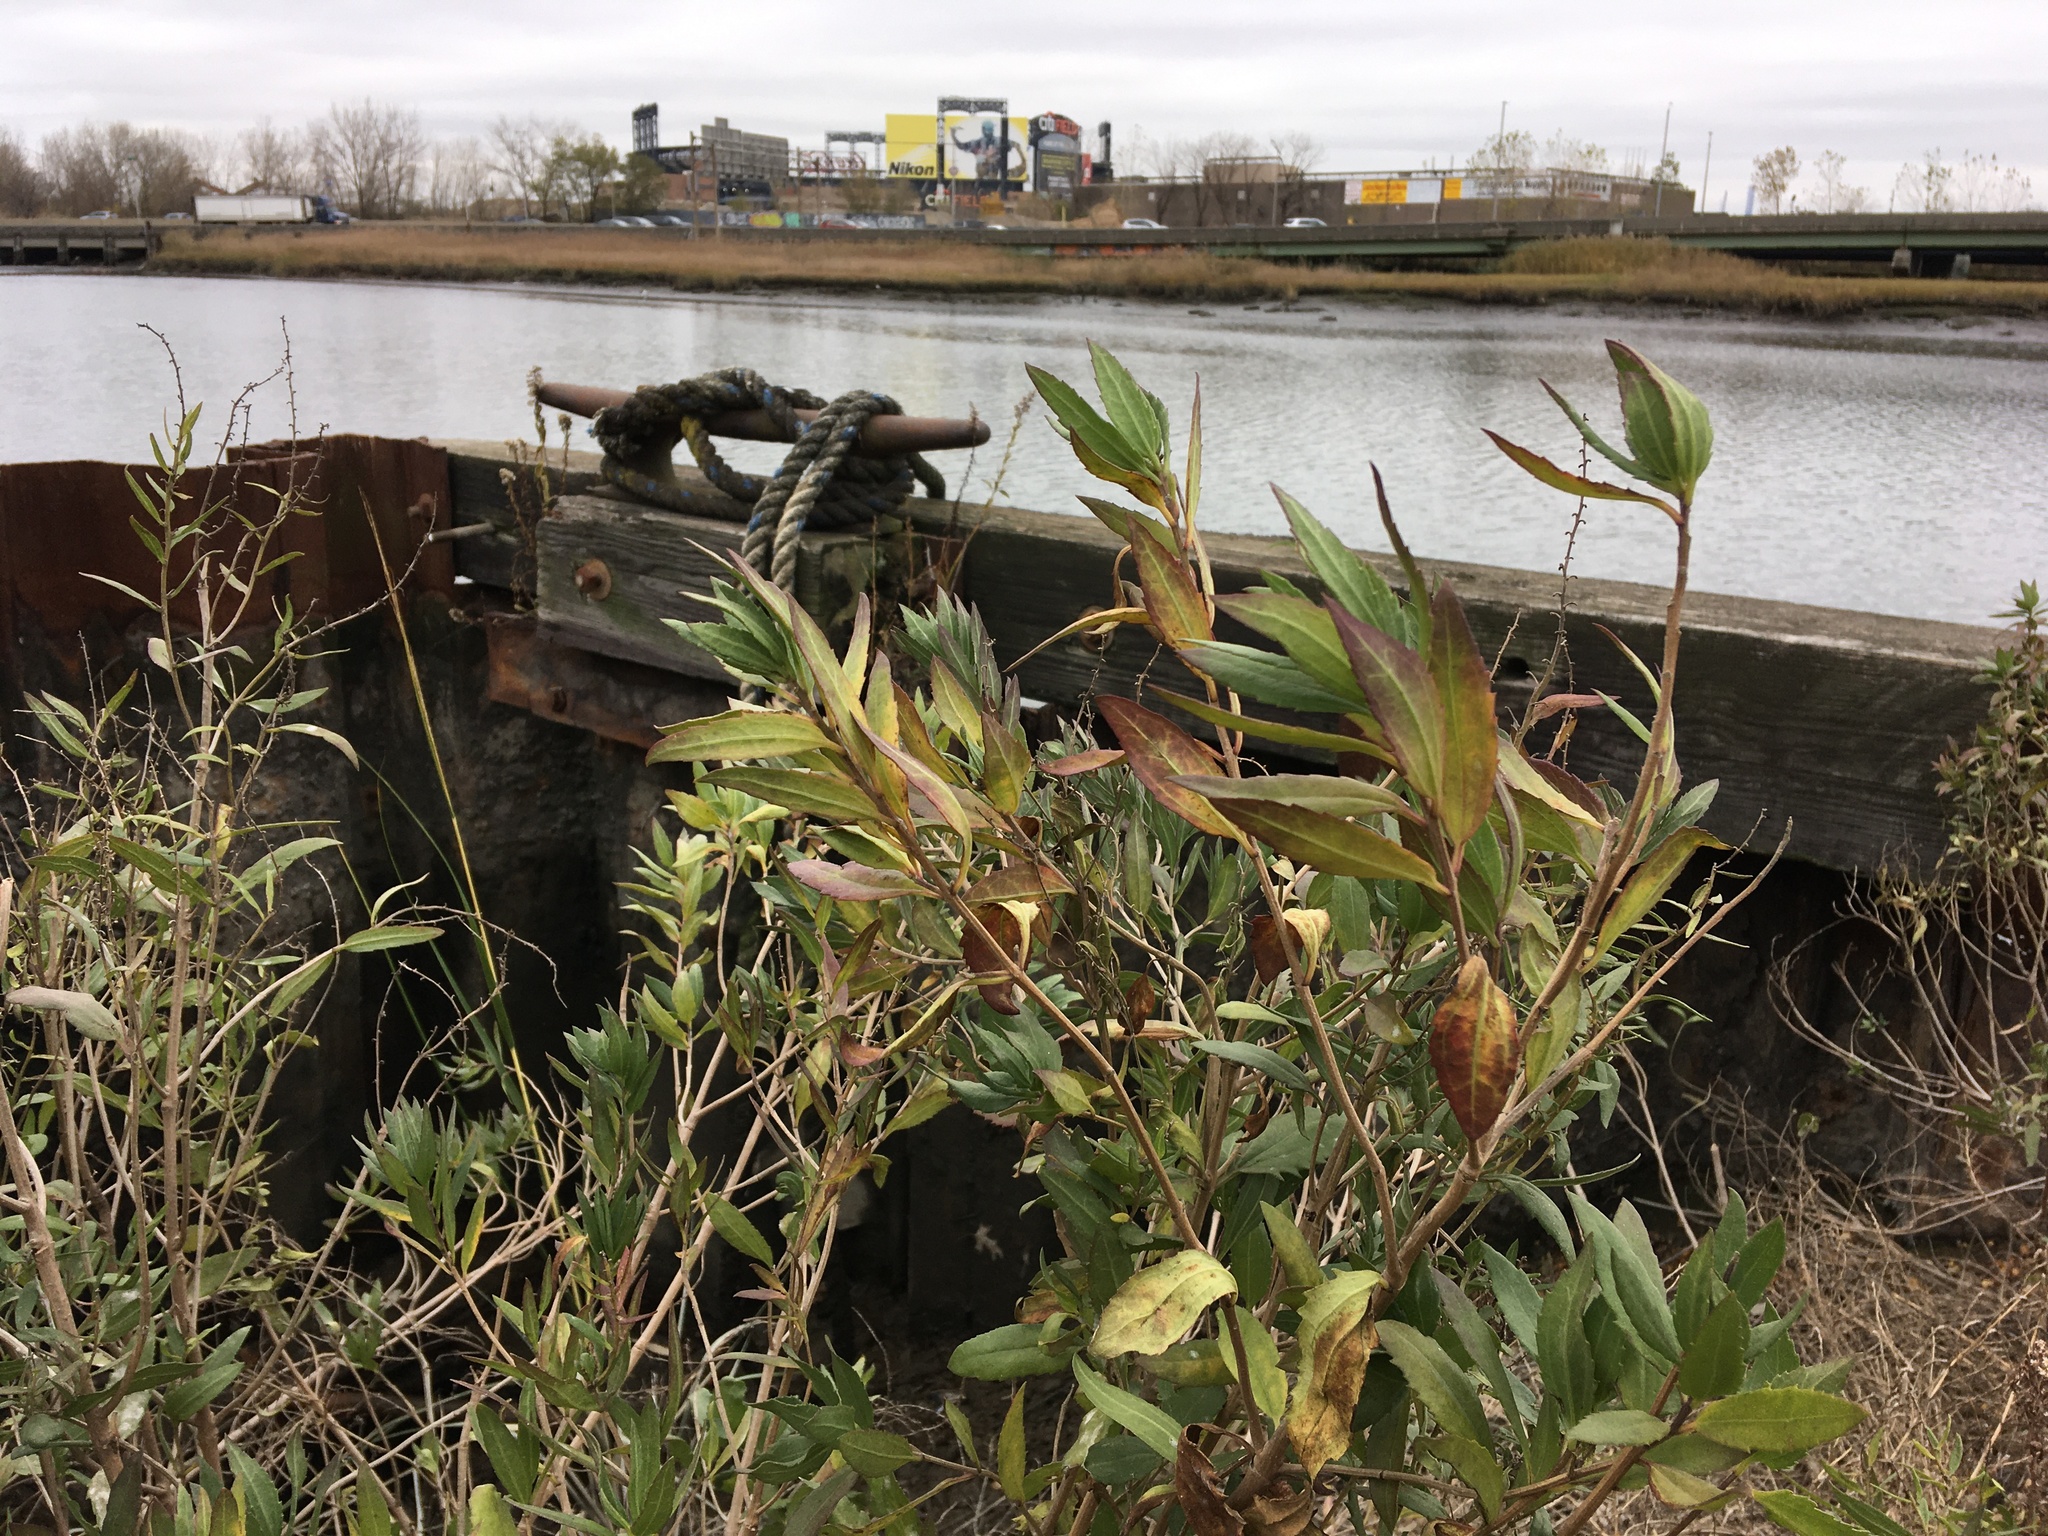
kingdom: Plantae
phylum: Tracheophyta
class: Magnoliopsida
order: Asterales
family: Asteraceae
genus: Iva
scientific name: Iva frutescens
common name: Big-leaved marsh-elder
